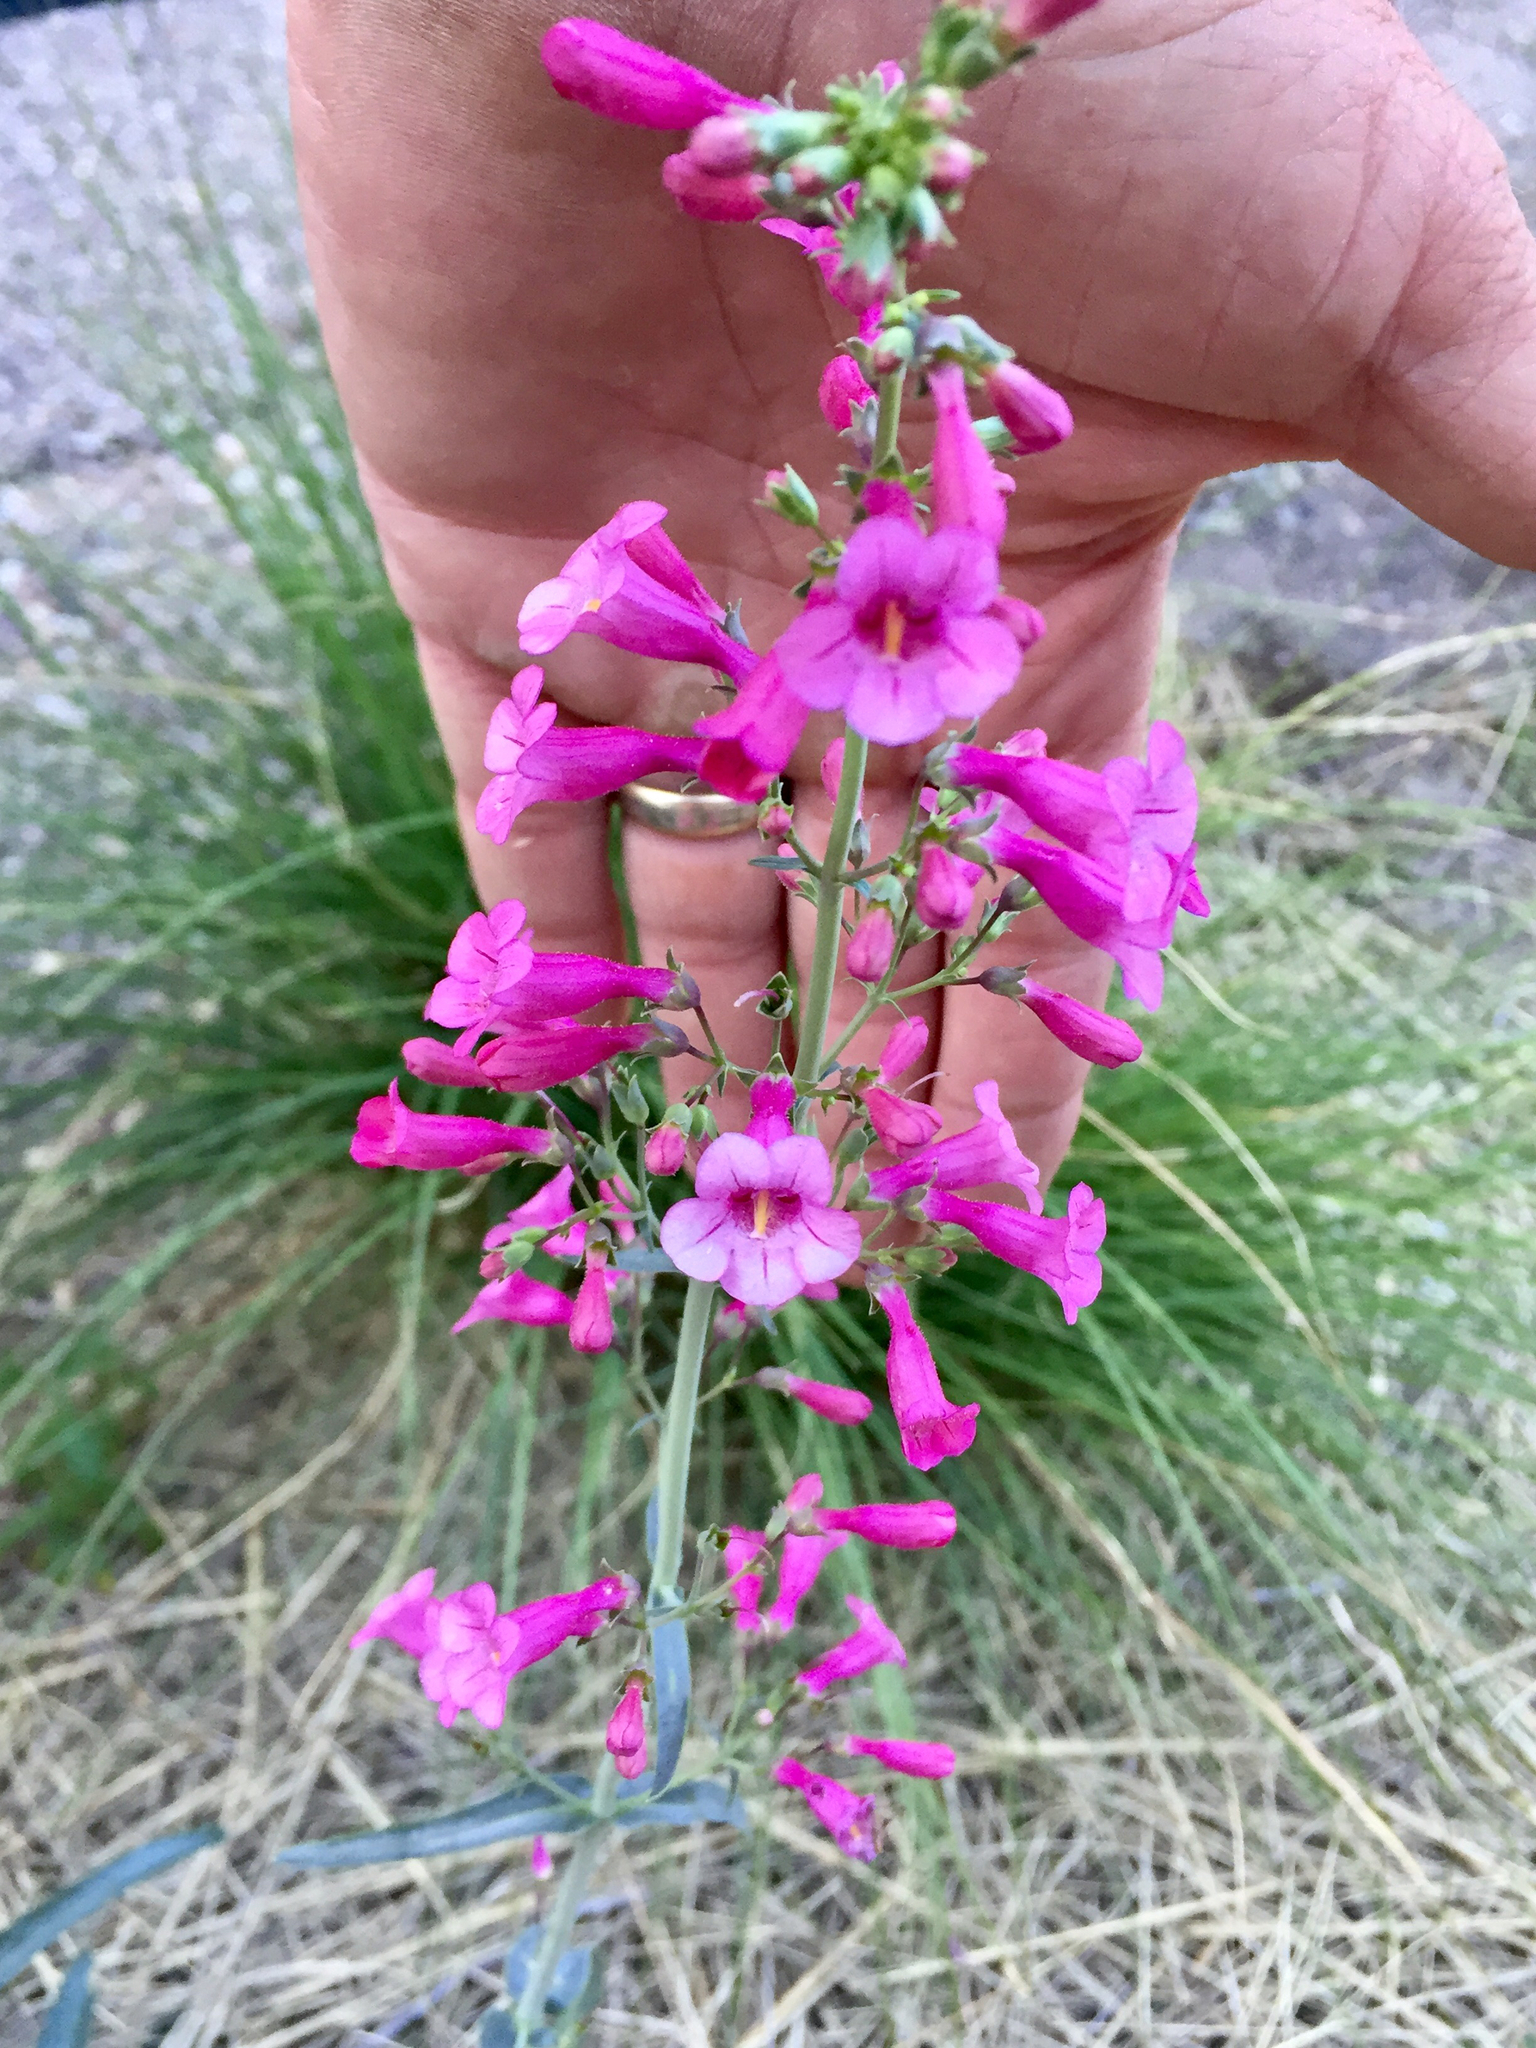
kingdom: Plantae
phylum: Tracheophyta
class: Magnoliopsida
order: Lamiales
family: Plantaginaceae
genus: Penstemon
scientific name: Penstemon parryi
